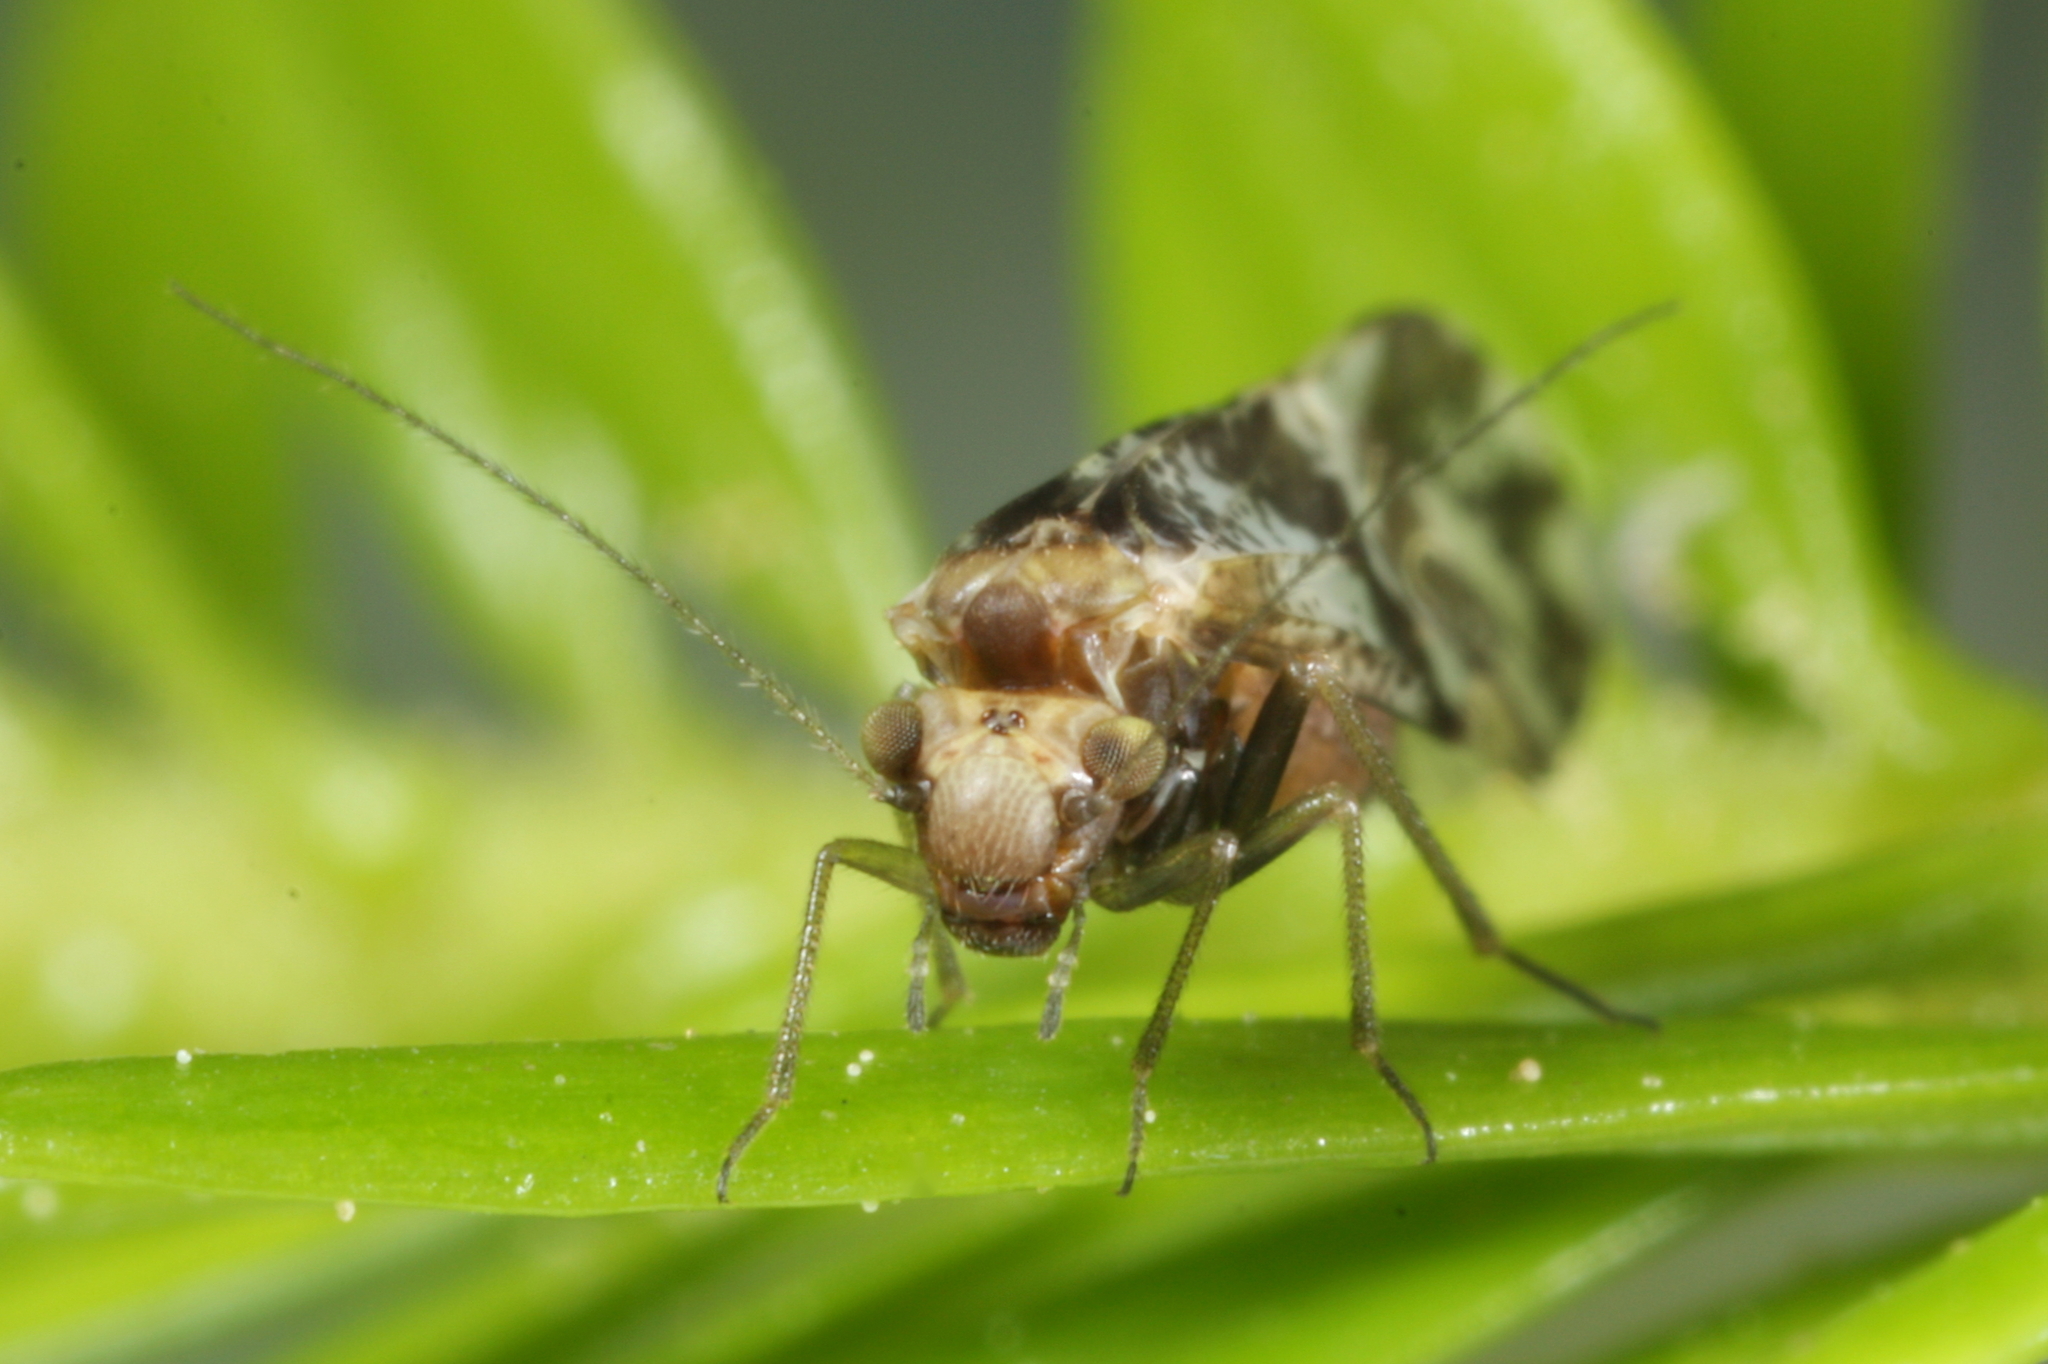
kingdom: Animalia
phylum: Arthropoda
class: Insecta
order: Psocodea
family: Psocidae
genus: Loensia
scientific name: Loensia fasciata
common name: Common bark louse
